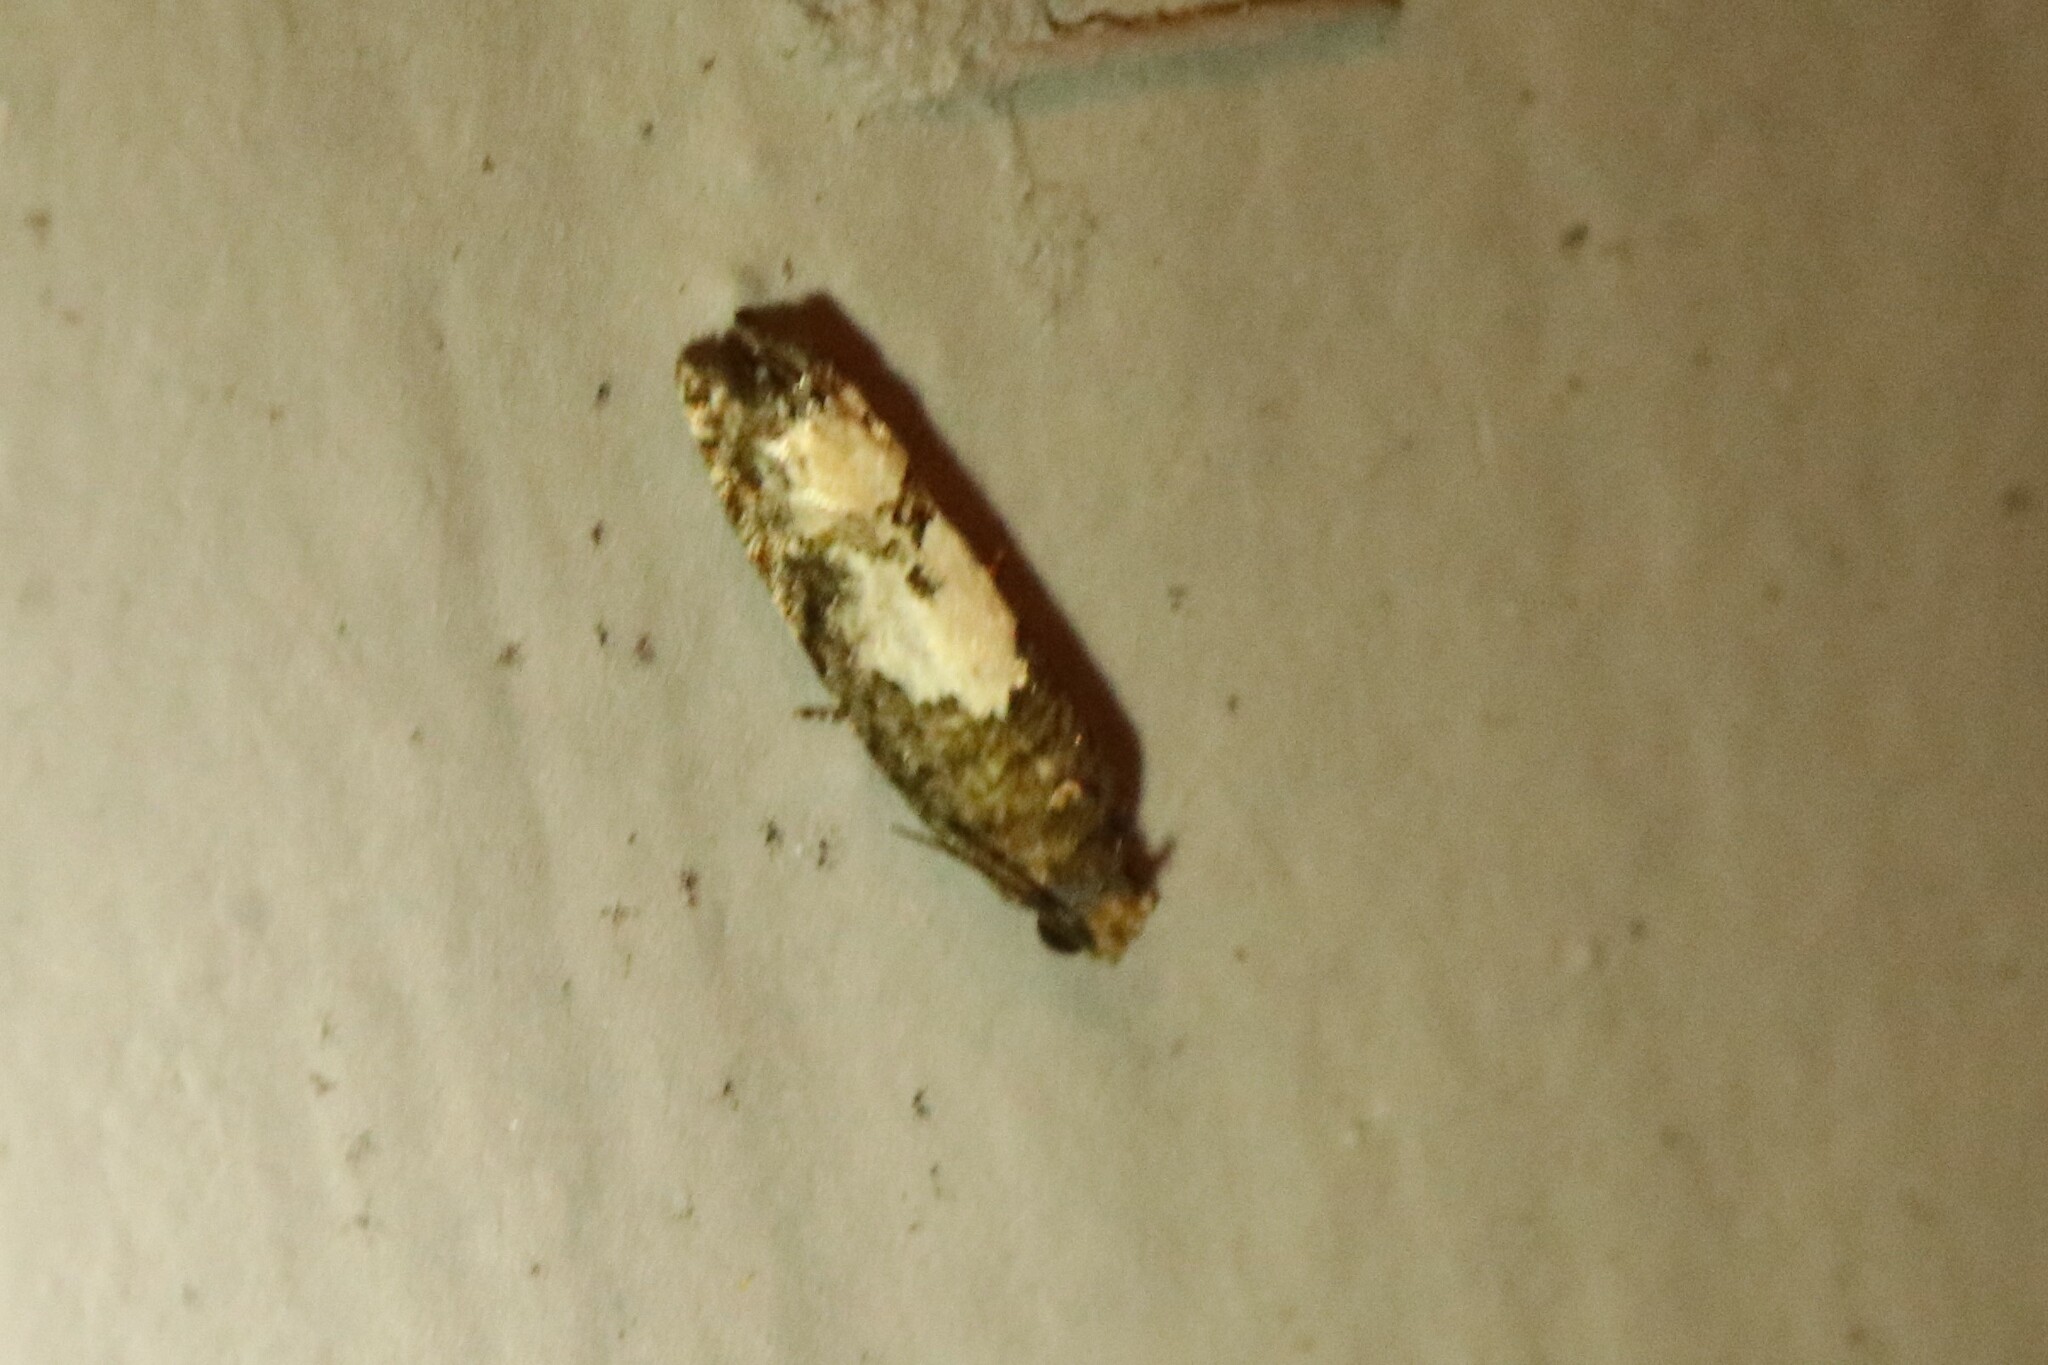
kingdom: Animalia
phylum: Arthropoda
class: Insecta
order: Lepidoptera
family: Tortricidae
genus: Eucosma
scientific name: Eucosma parmatana
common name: Aster eucosma moth
